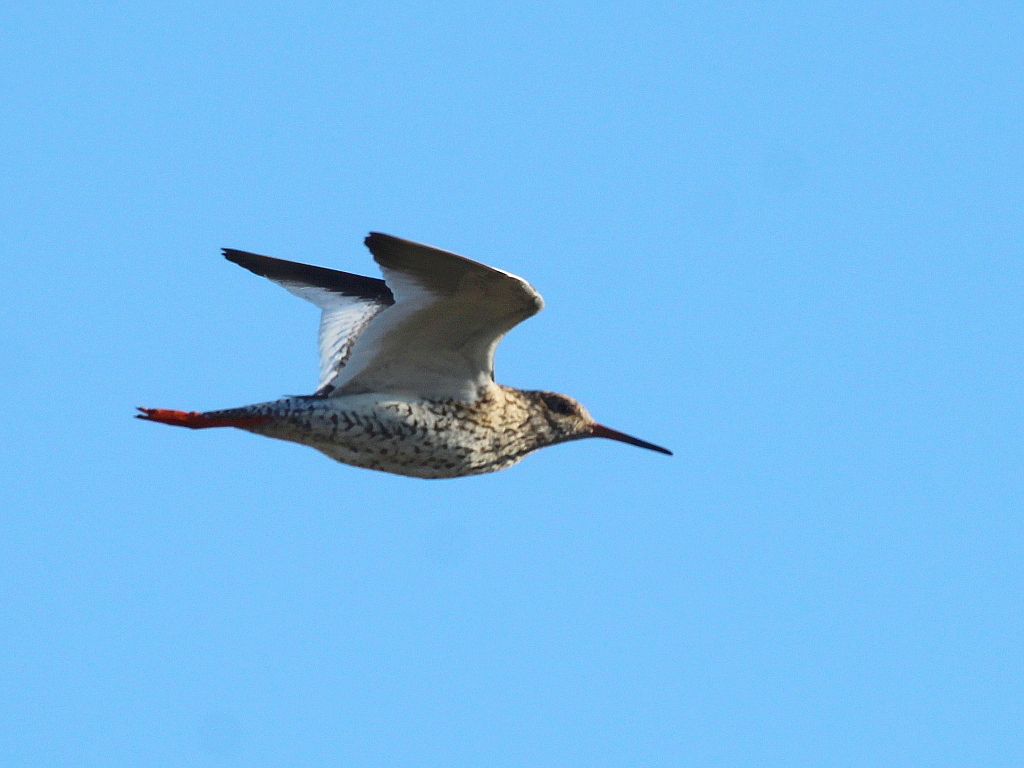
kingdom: Animalia
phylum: Chordata
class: Aves
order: Charadriiformes
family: Scolopacidae
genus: Tringa
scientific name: Tringa totanus
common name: Common redshank
